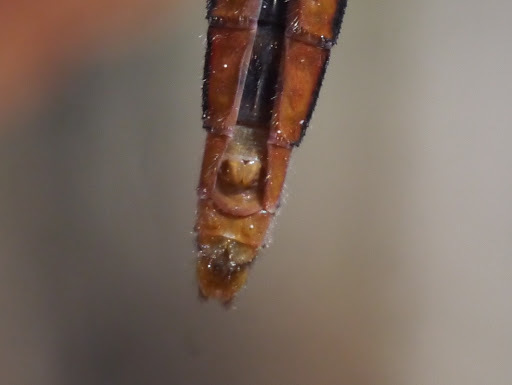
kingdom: Animalia
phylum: Arthropoda
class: Insecta
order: Odonata
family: Libellulidae
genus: Ladona
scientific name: Ladona deplanata
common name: Blue corporal
